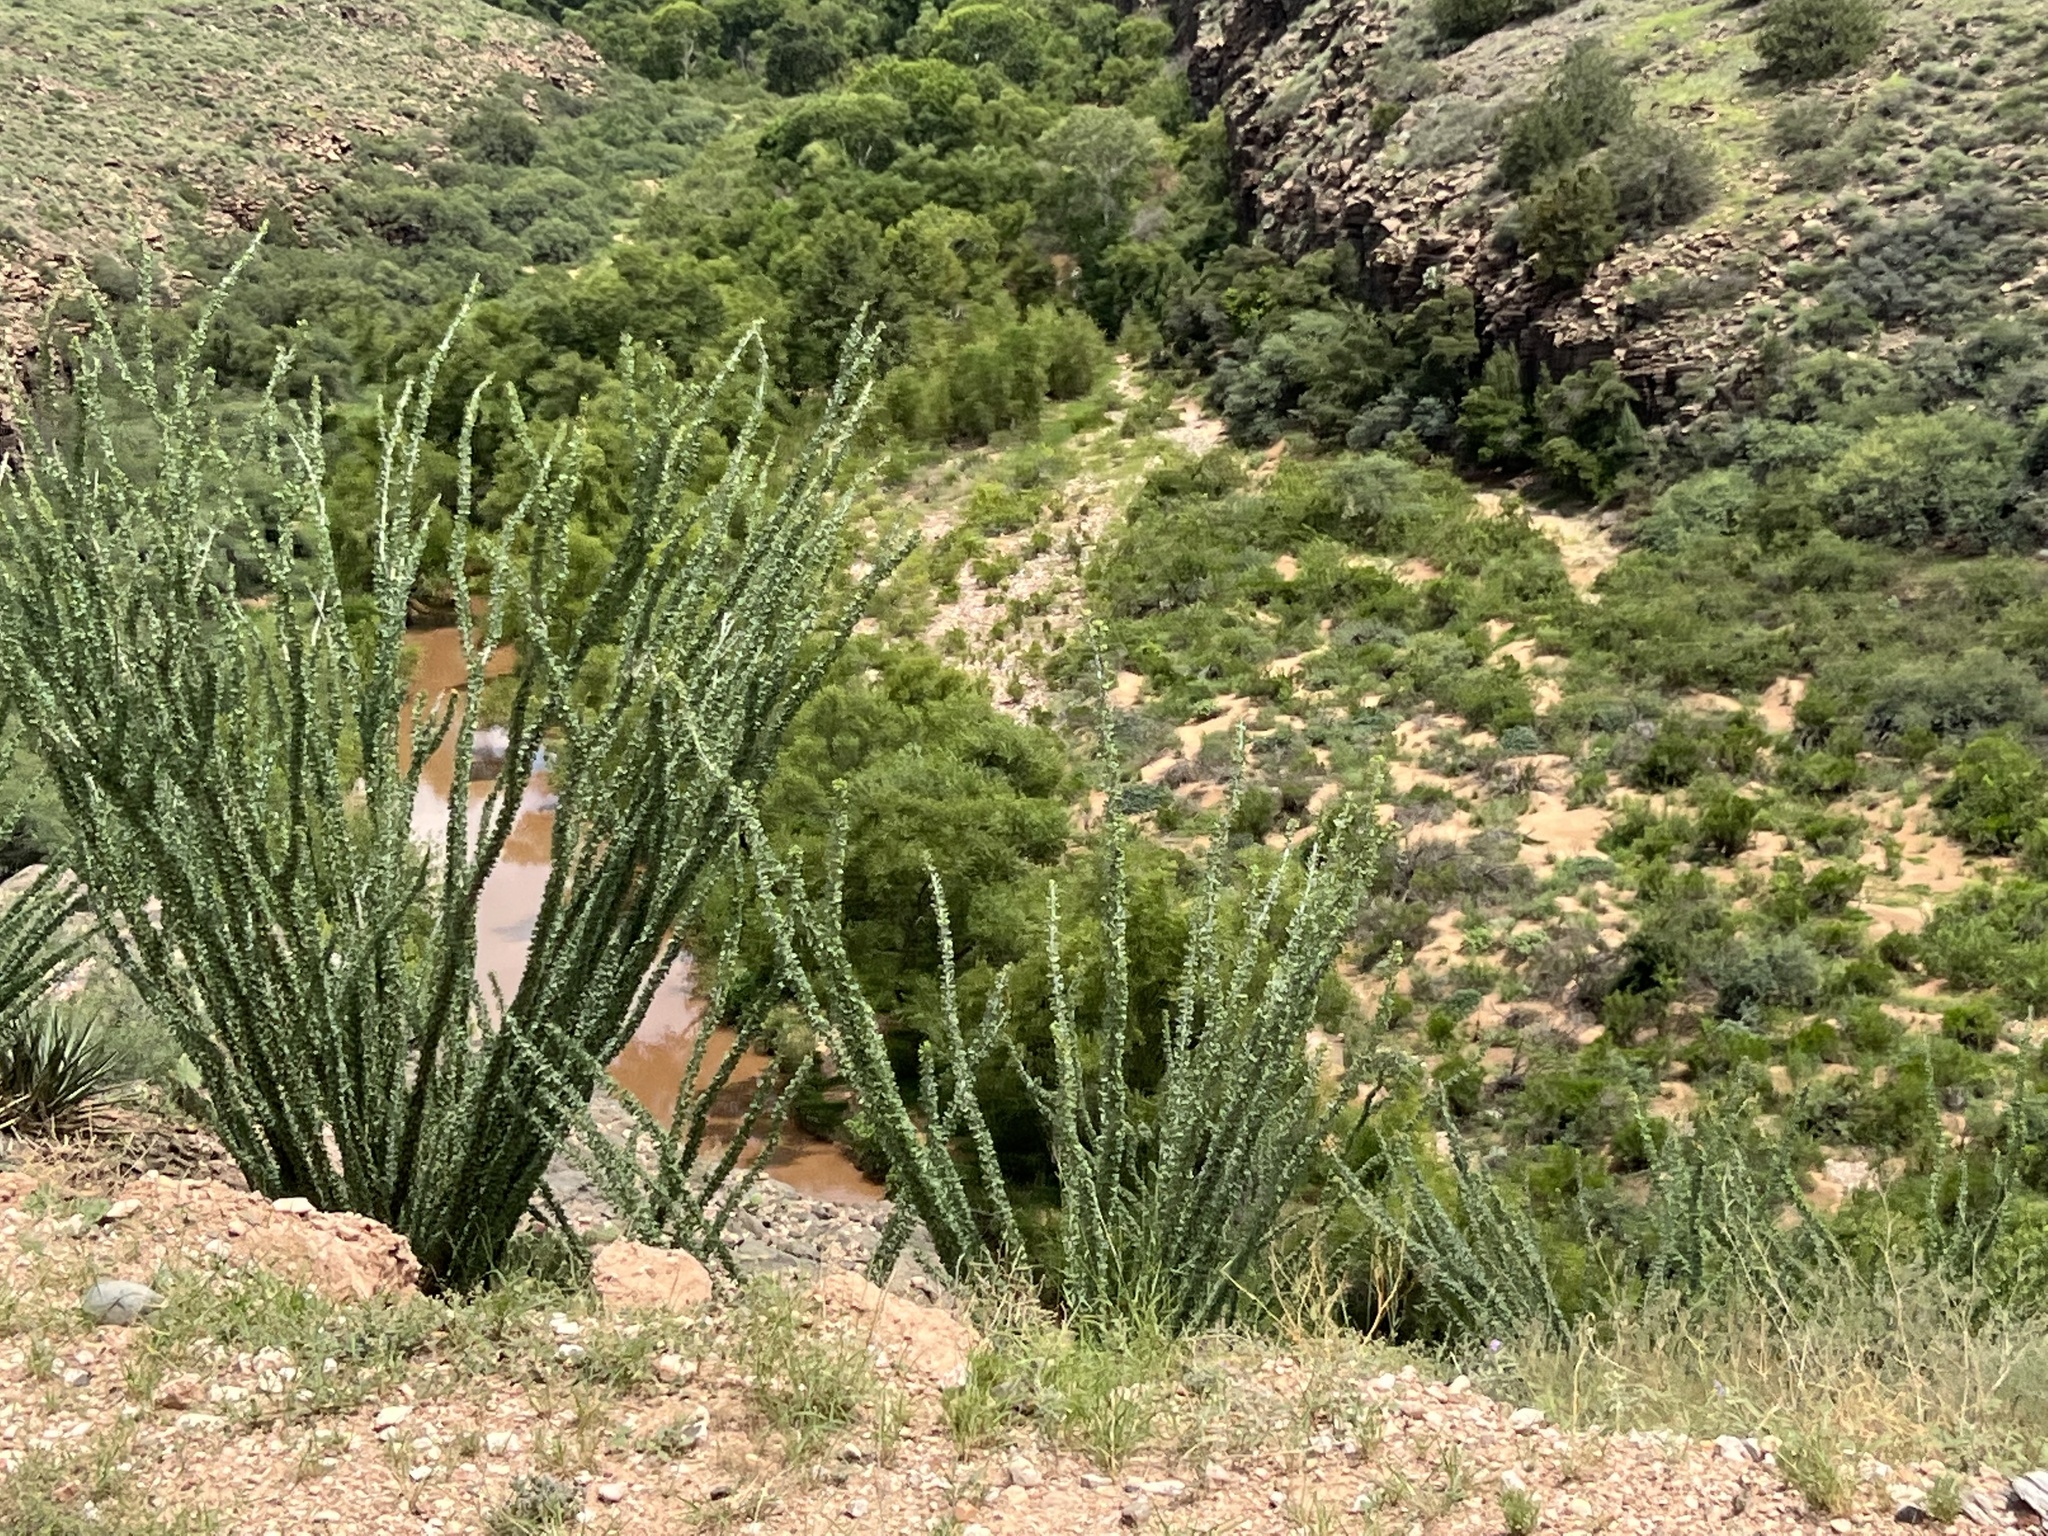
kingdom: Plantae
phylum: Tracheophyta
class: Magnoliopsida
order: Ericales
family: Fouquieriaceae
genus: Fouquieria
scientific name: Fouquieria splendens
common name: Vine-cactus
